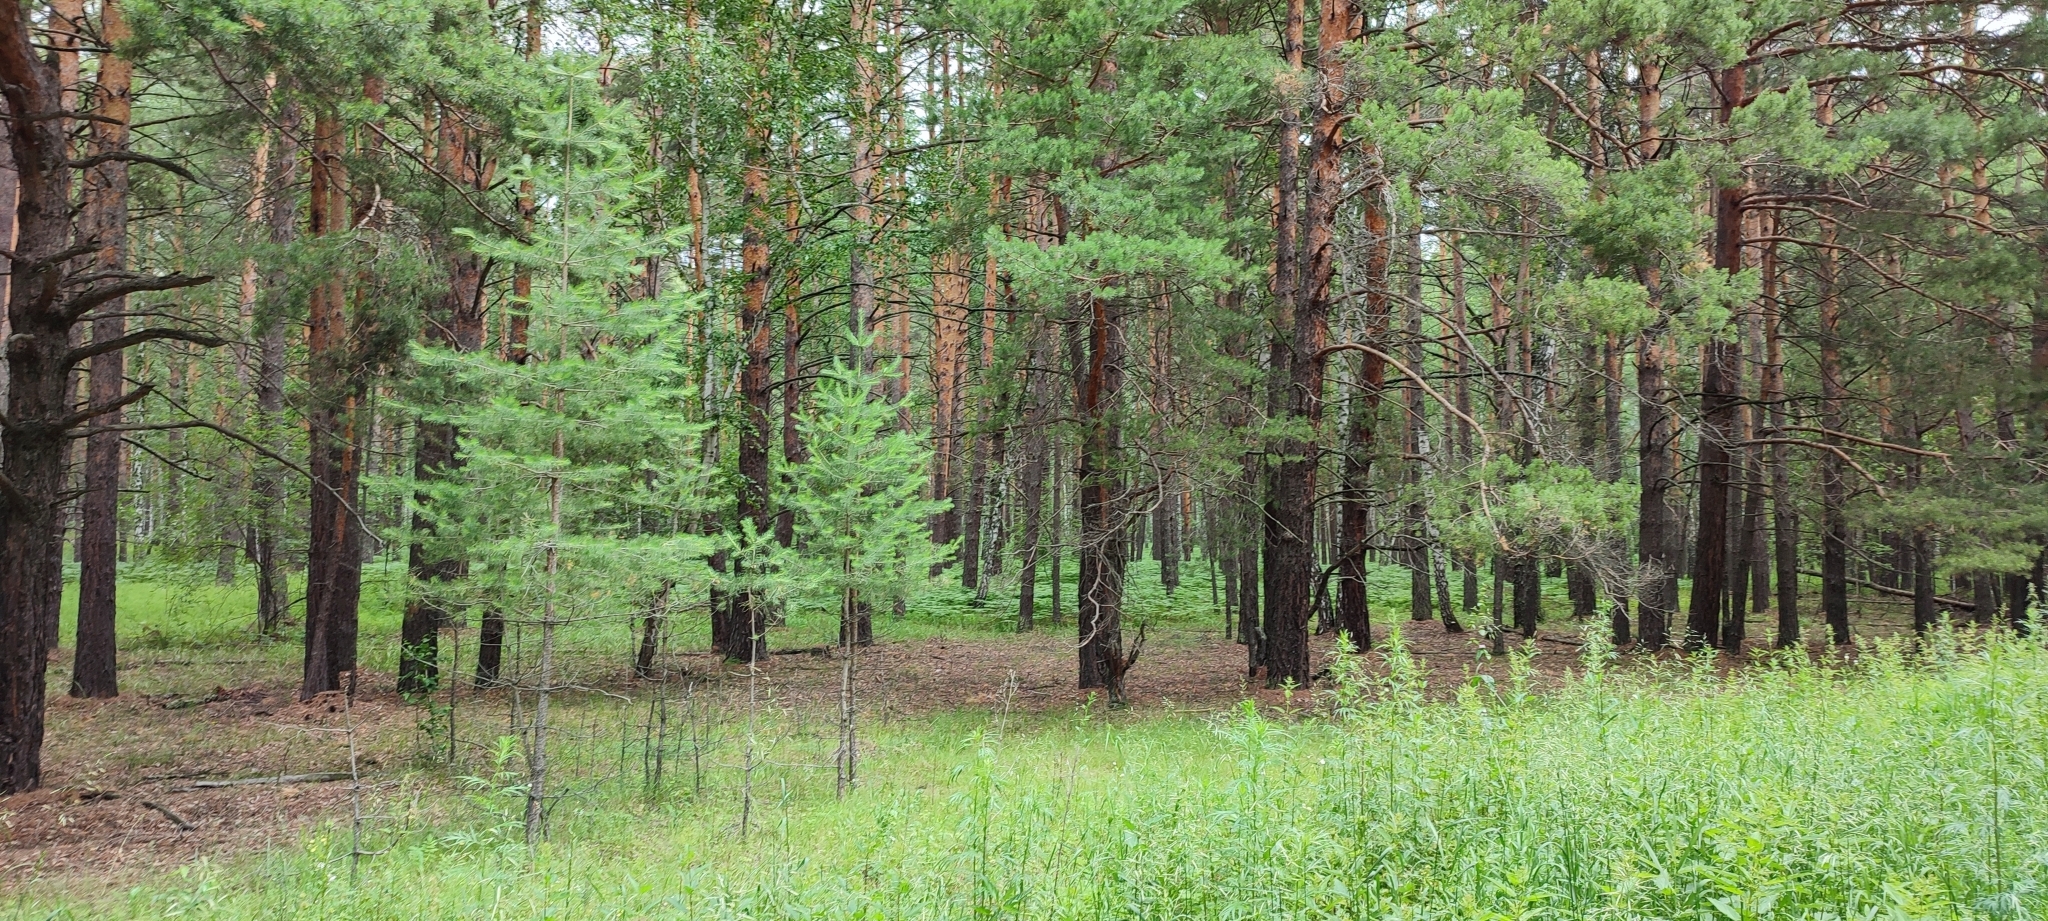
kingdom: Plantae
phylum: Tracheophyta
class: Pinopsida
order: Pinales
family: Pinaceae
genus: Pinus
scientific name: Pinus sylvestris
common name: Scots pine
